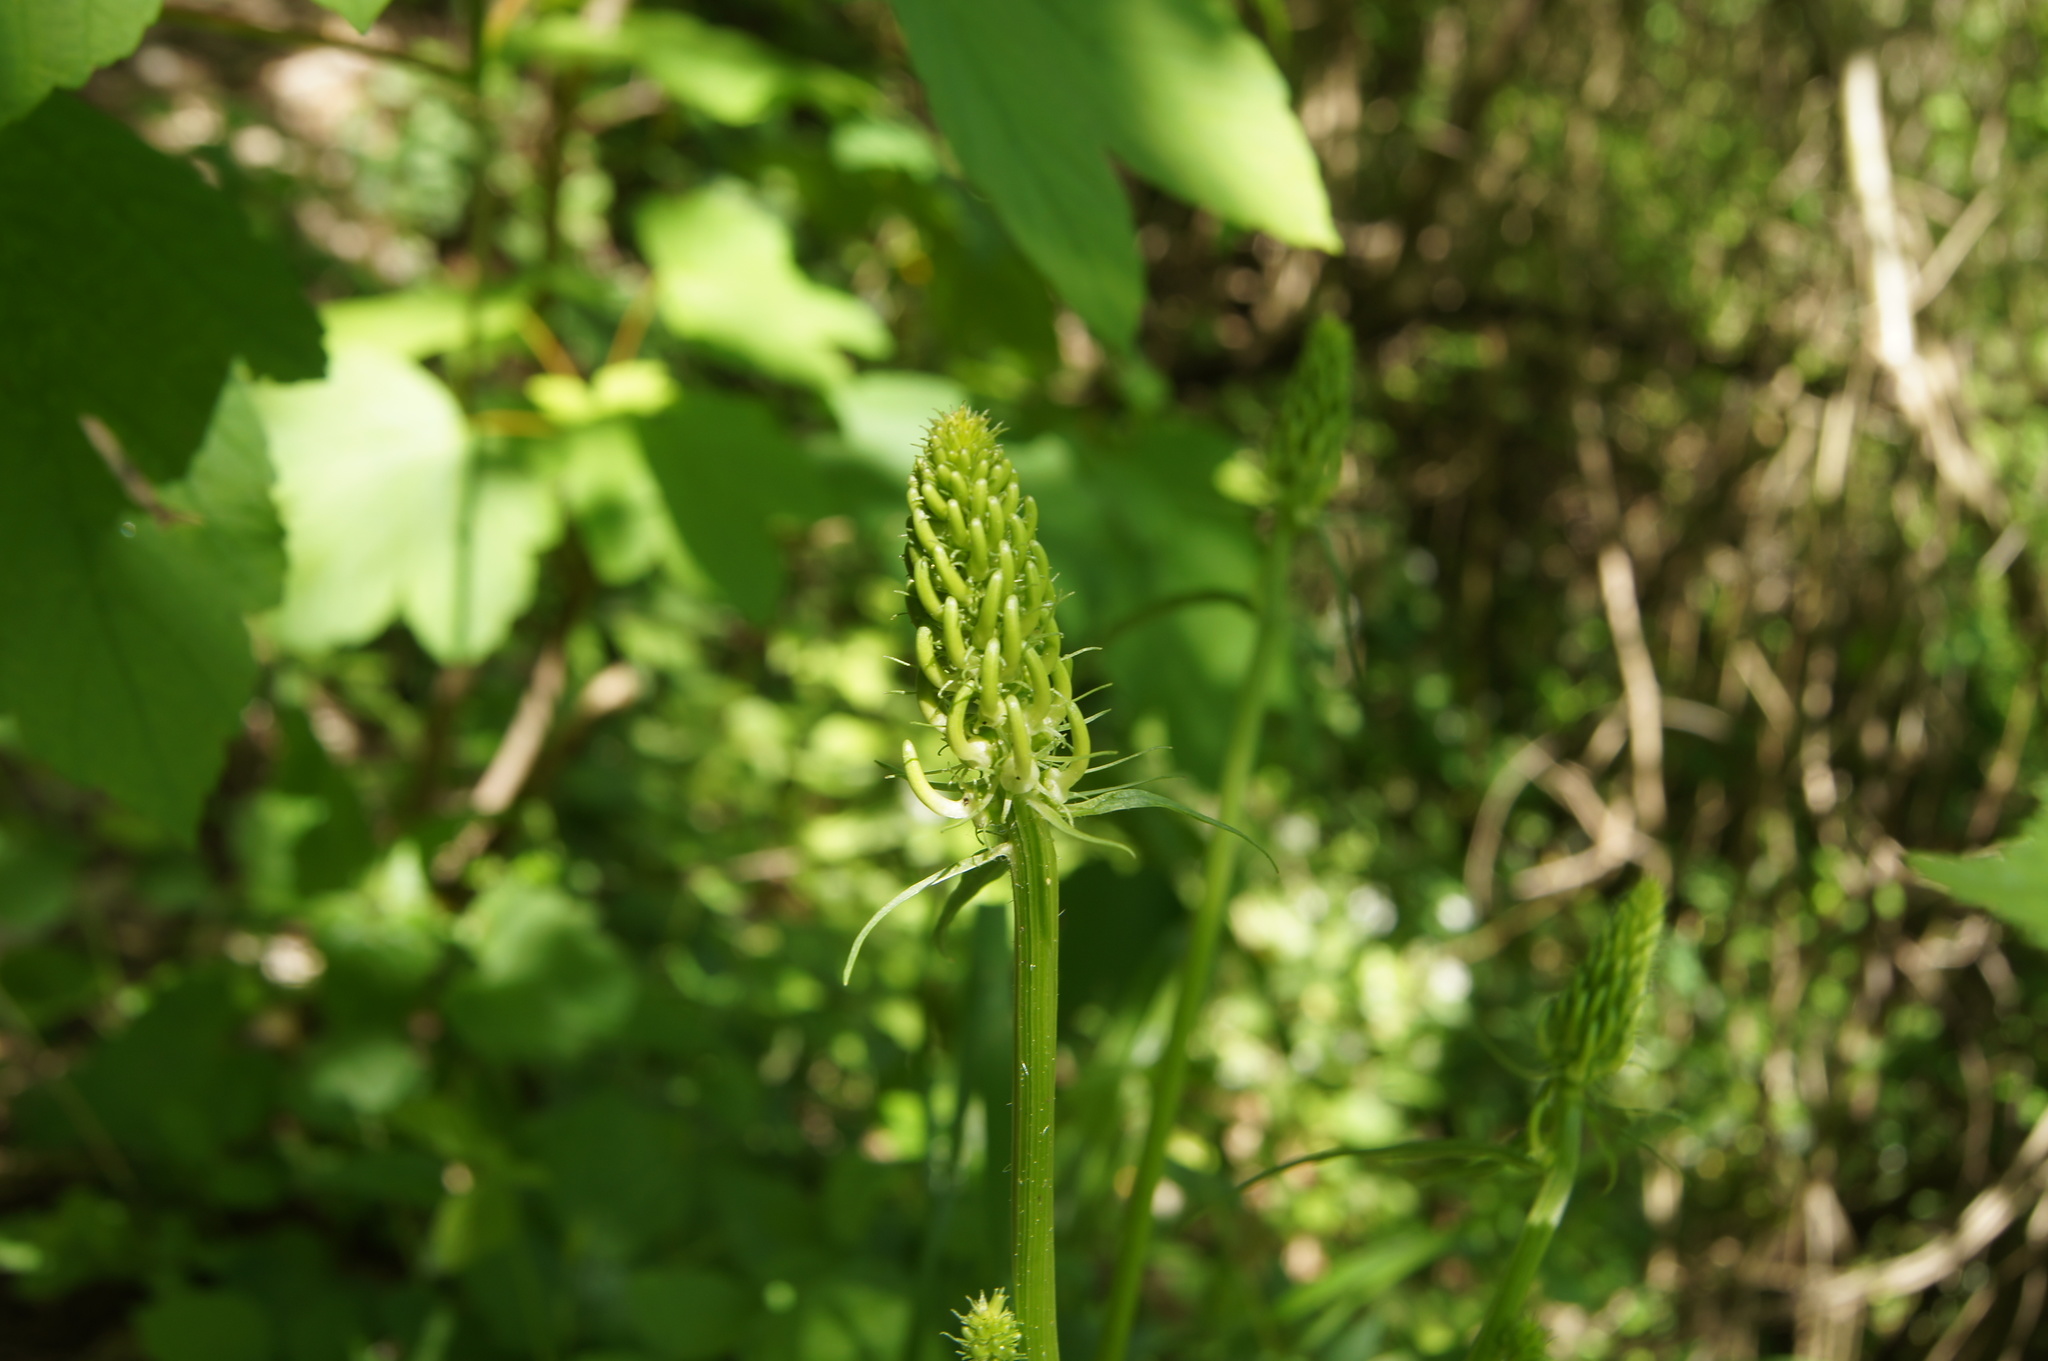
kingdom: Plantae
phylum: Tracheophyta
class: Magnoliopsida
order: Asterales
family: Campanulaceae
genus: Phyteuma
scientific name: Phyteuma spicatum
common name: Spiked rampion
